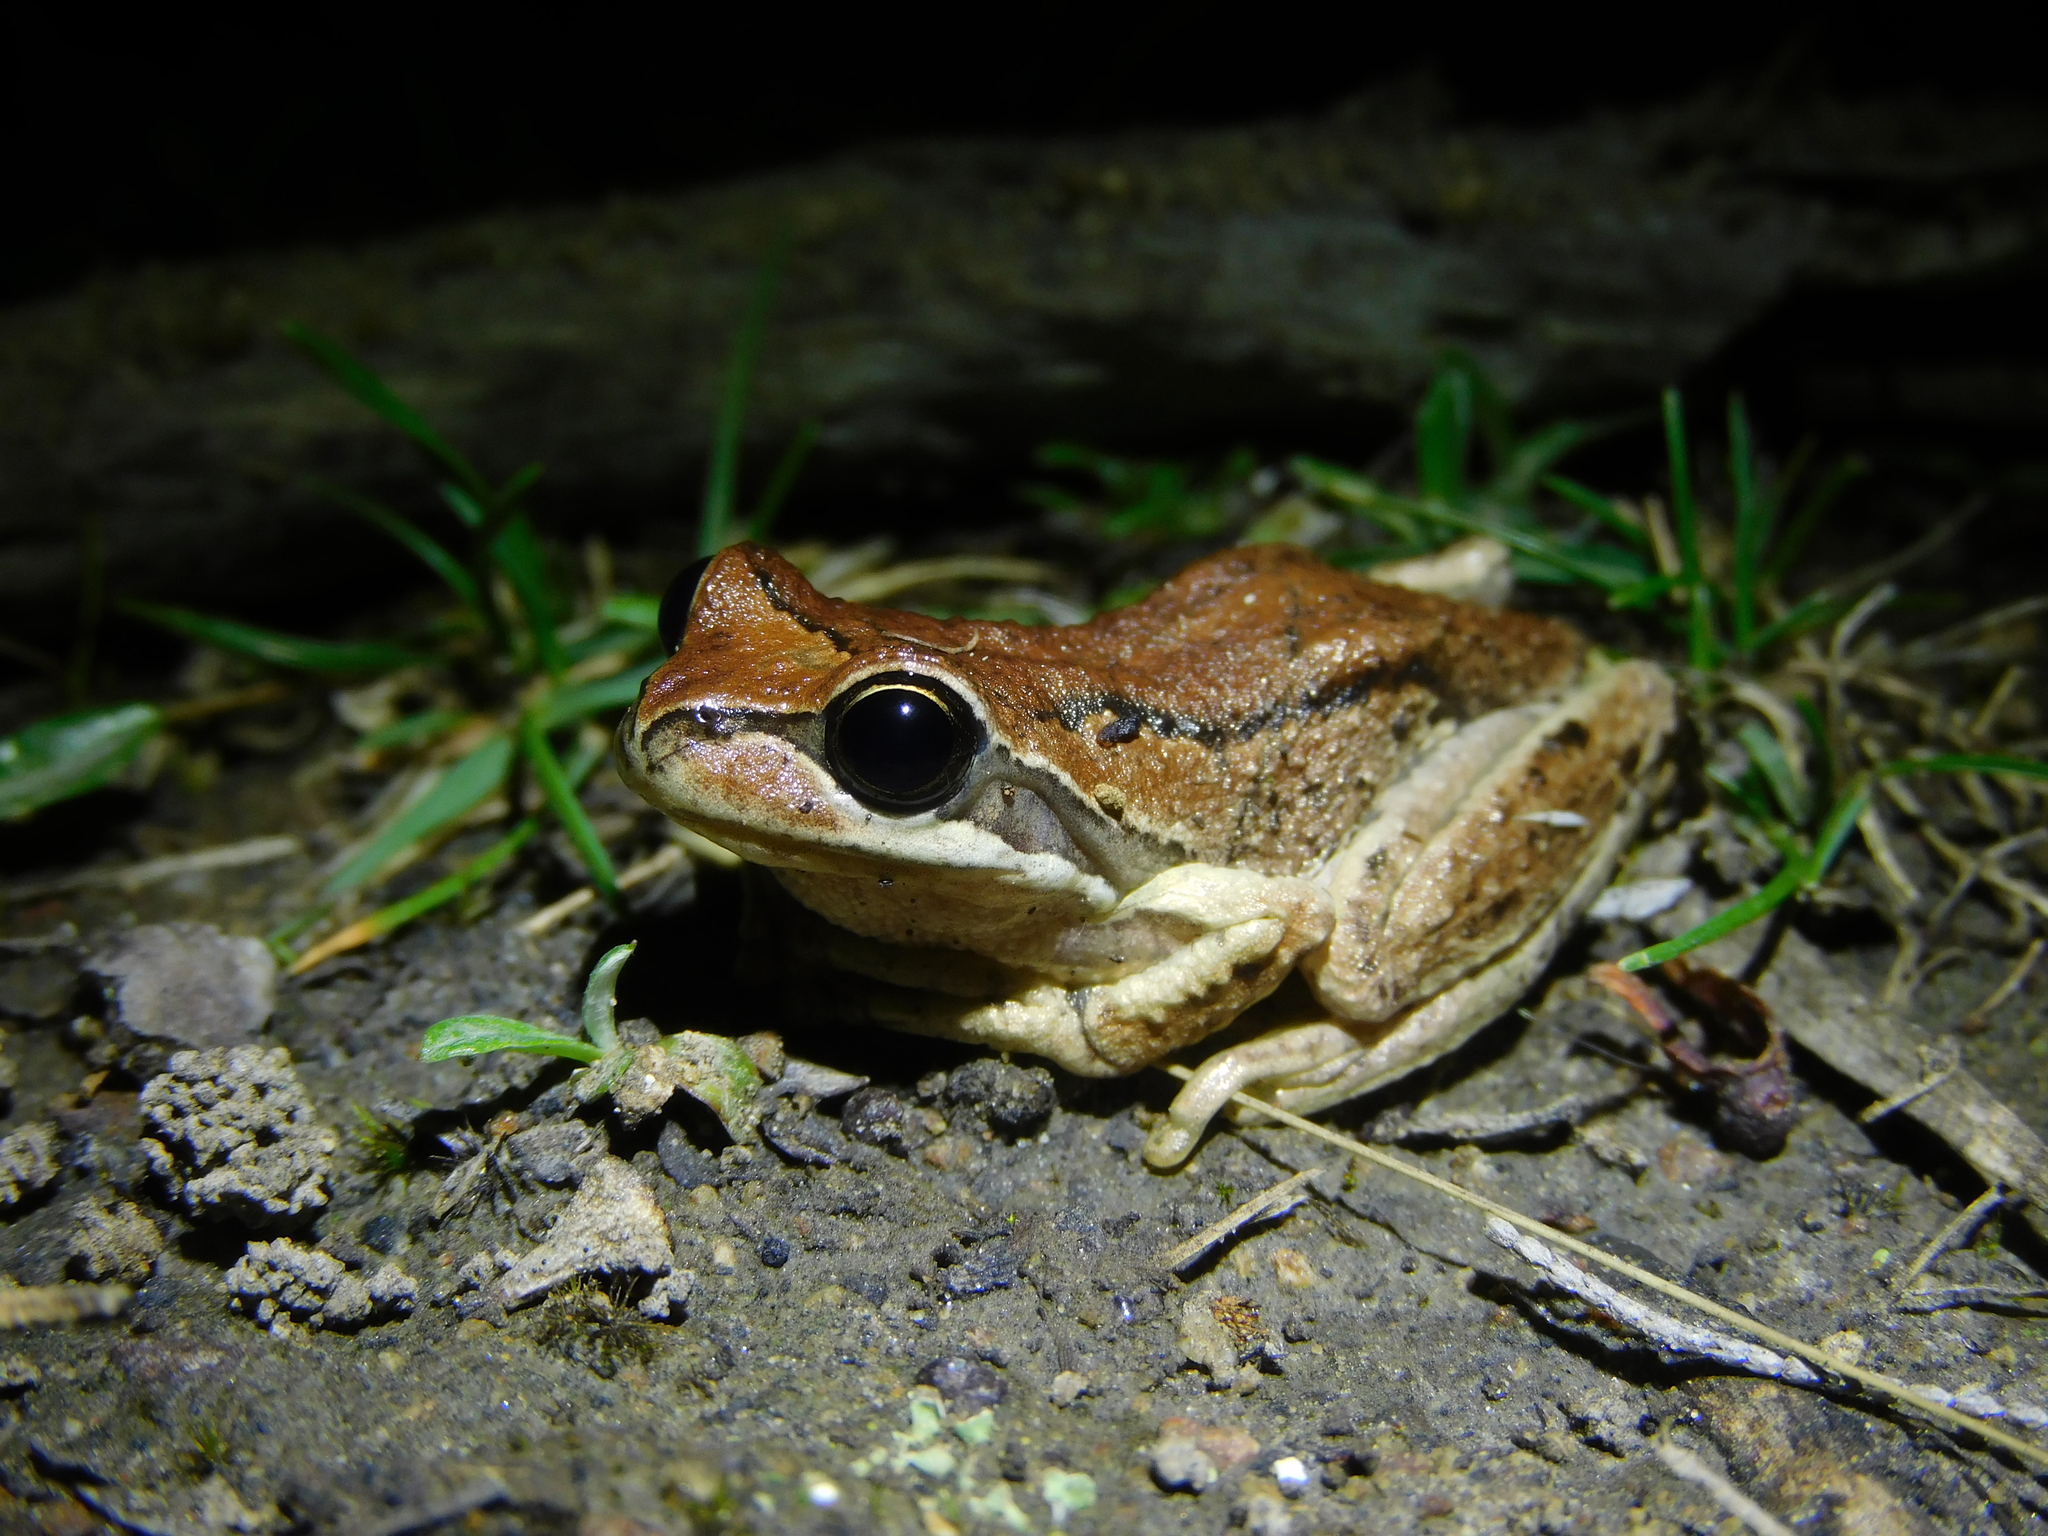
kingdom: Animalia
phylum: Chordata
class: Amphibia
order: Anura
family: Pelodryadidae
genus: Litoria
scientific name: Litoria ewingii
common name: Southern brown tree frog
